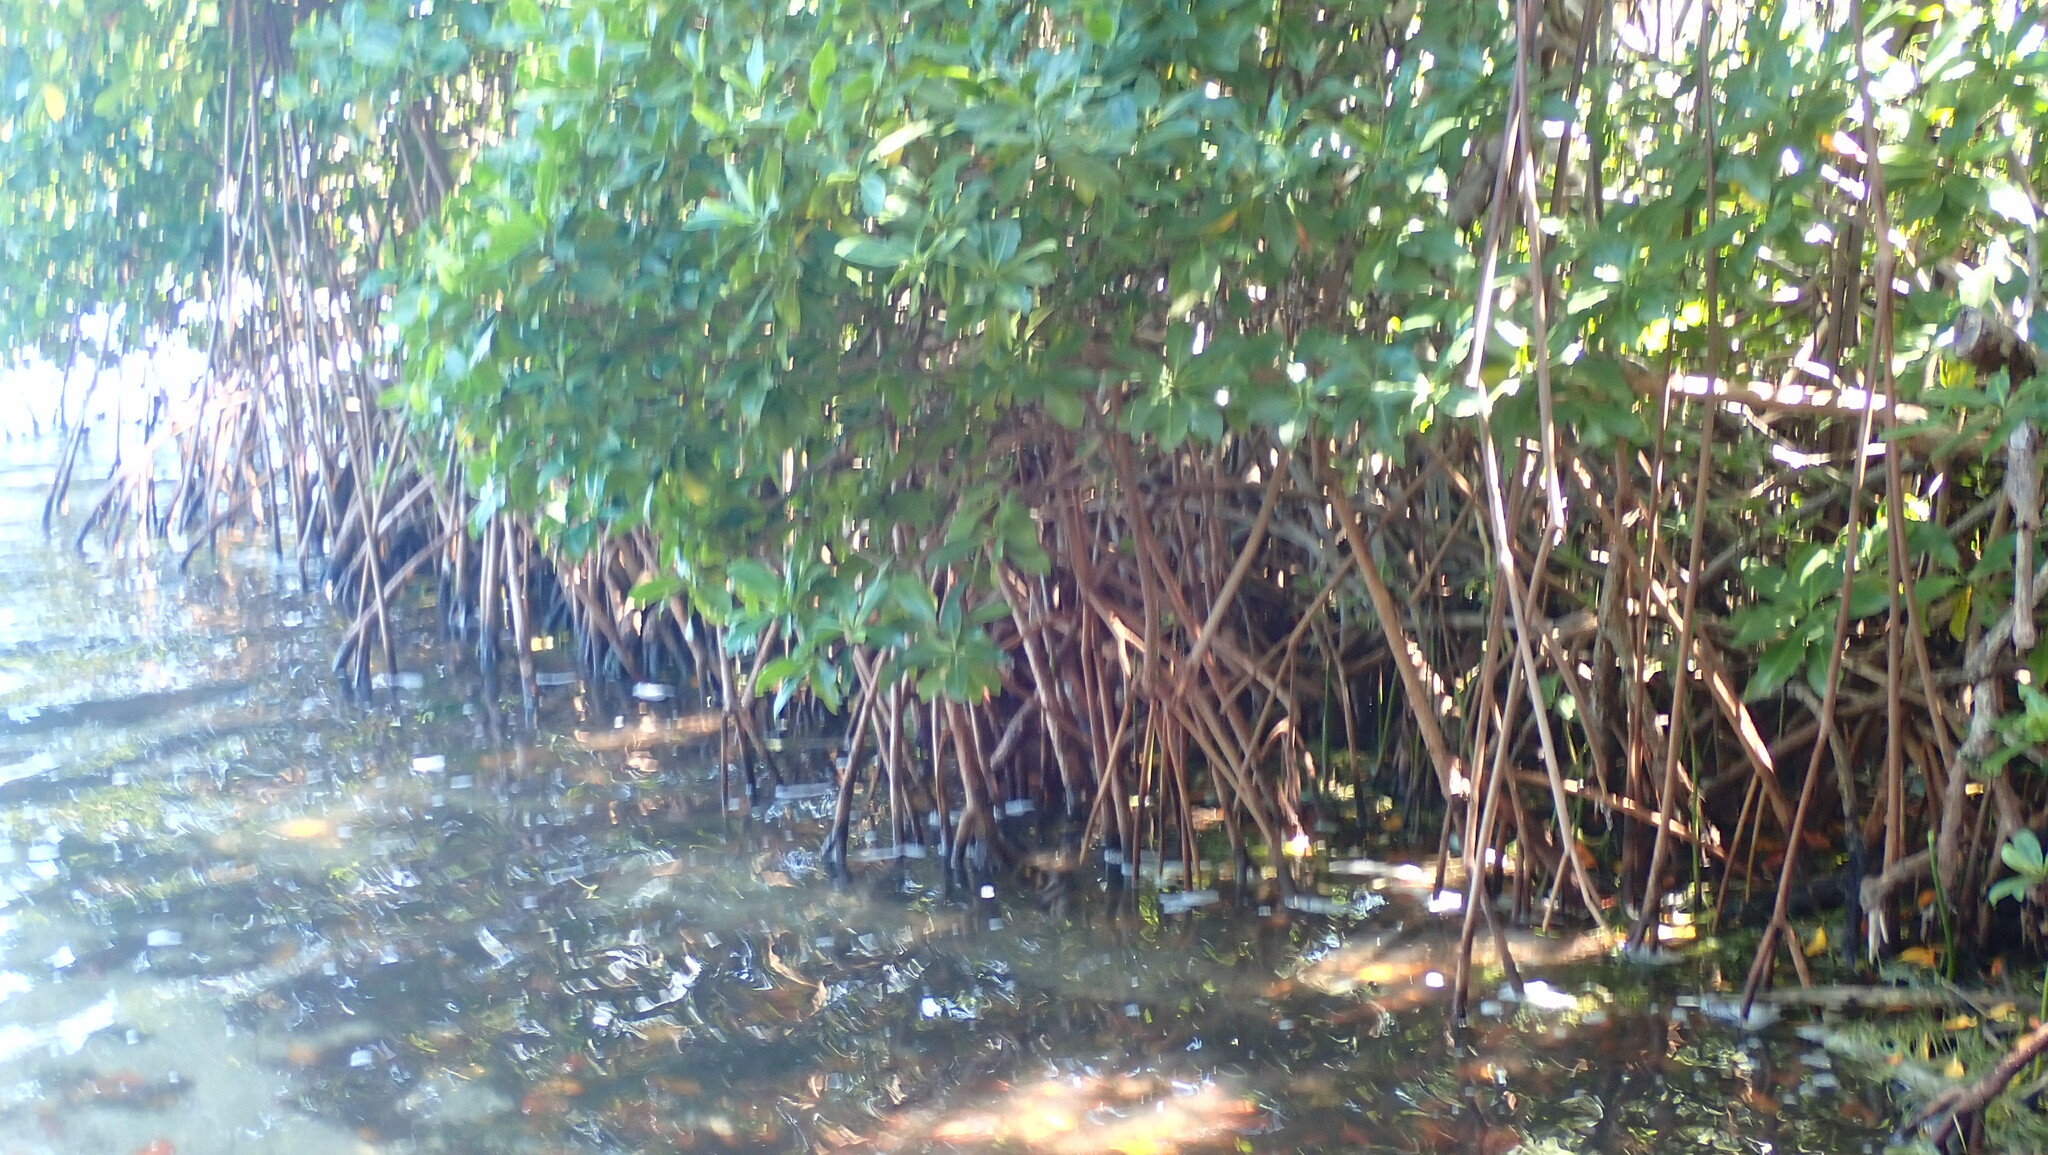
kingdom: Plantae
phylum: Tracheophyta
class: Magnoliopsida
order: Malpighiales
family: Rhizophoraceae
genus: Rhizophora
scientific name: Rhizophora mangle
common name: Red mangrove
